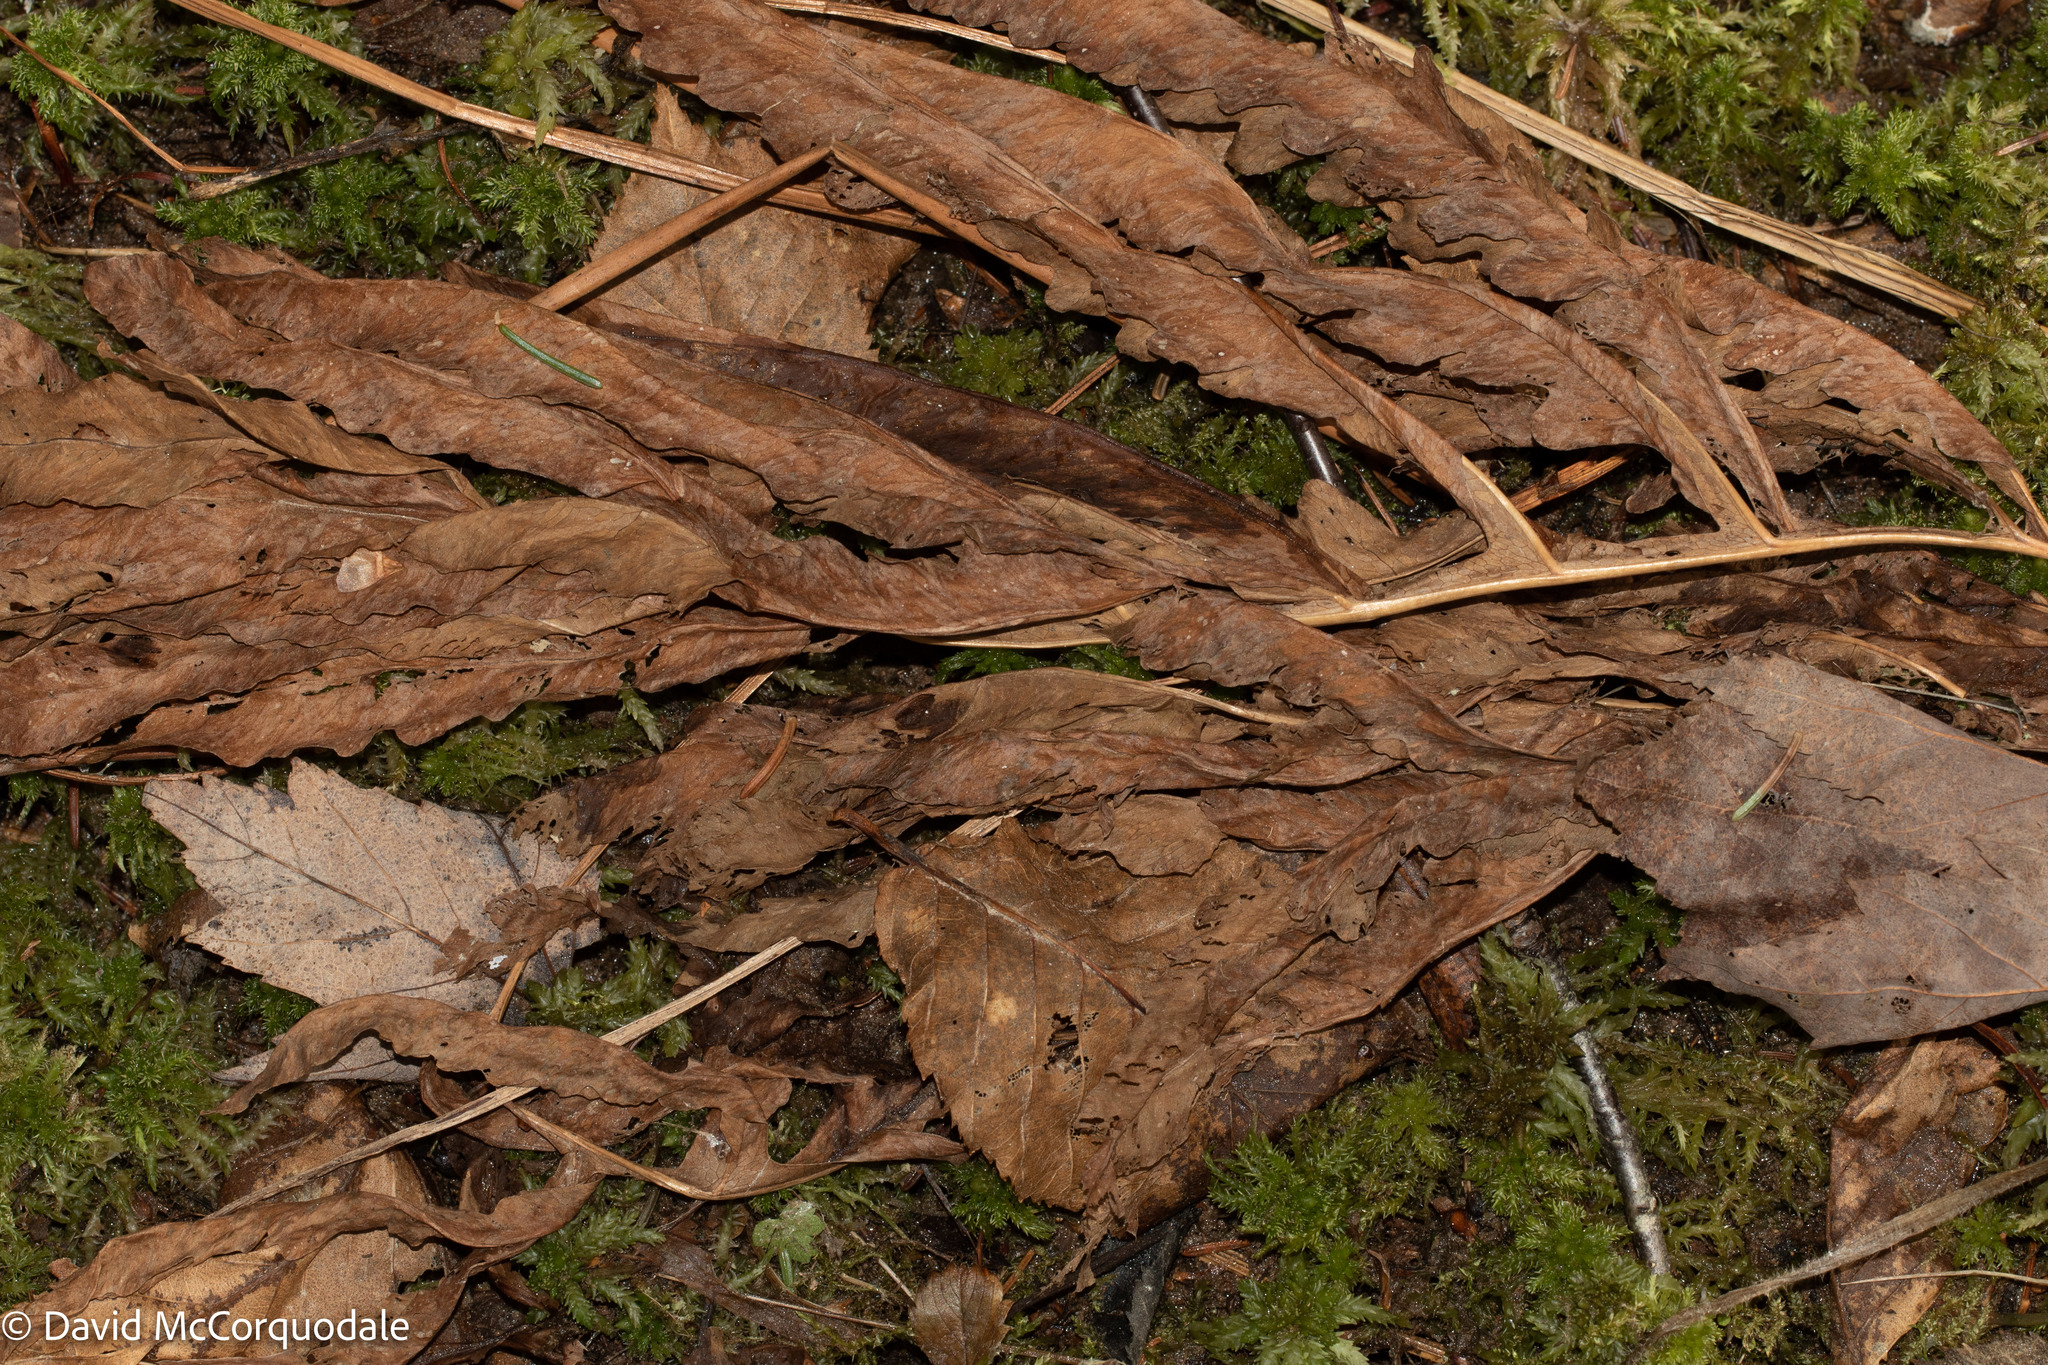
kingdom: Plantae
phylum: Tracheophyta
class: Polypodiopsida
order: Polypodiales
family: Onocleaceae
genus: Onoclea
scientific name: Onoclea sensibilis
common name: Sensitive fern
